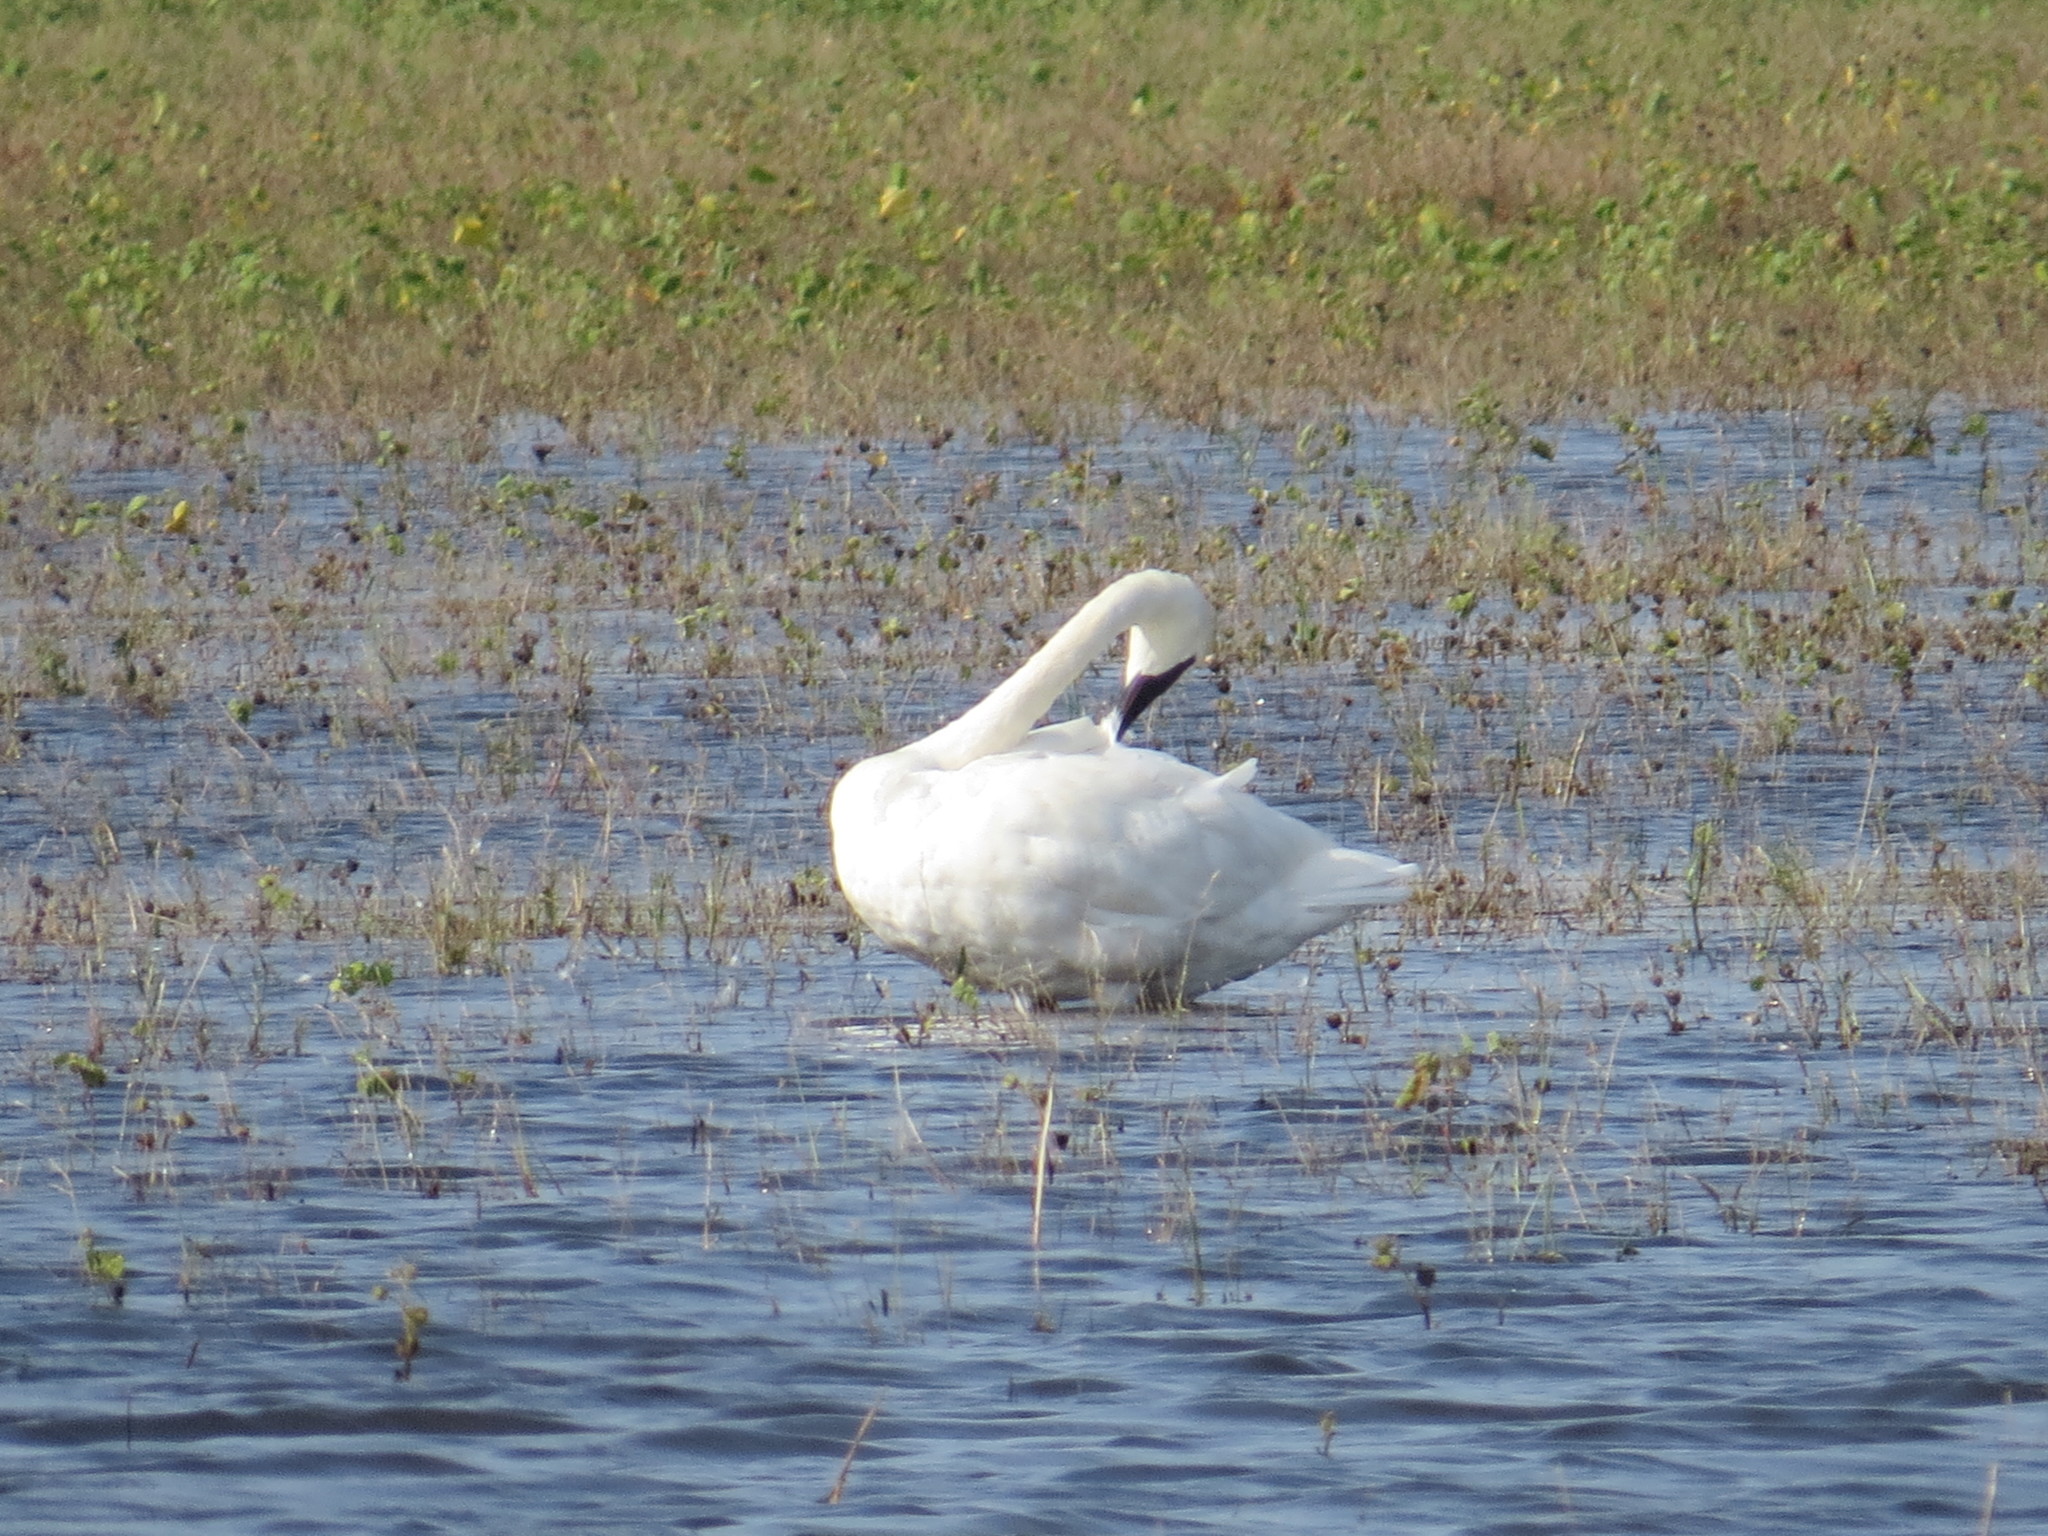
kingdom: Animalia
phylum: Chordata
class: Aves
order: Anseriformes
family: Anatidae
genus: Cygnus
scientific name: Cygnus buccinator
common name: Trumpeter swan
